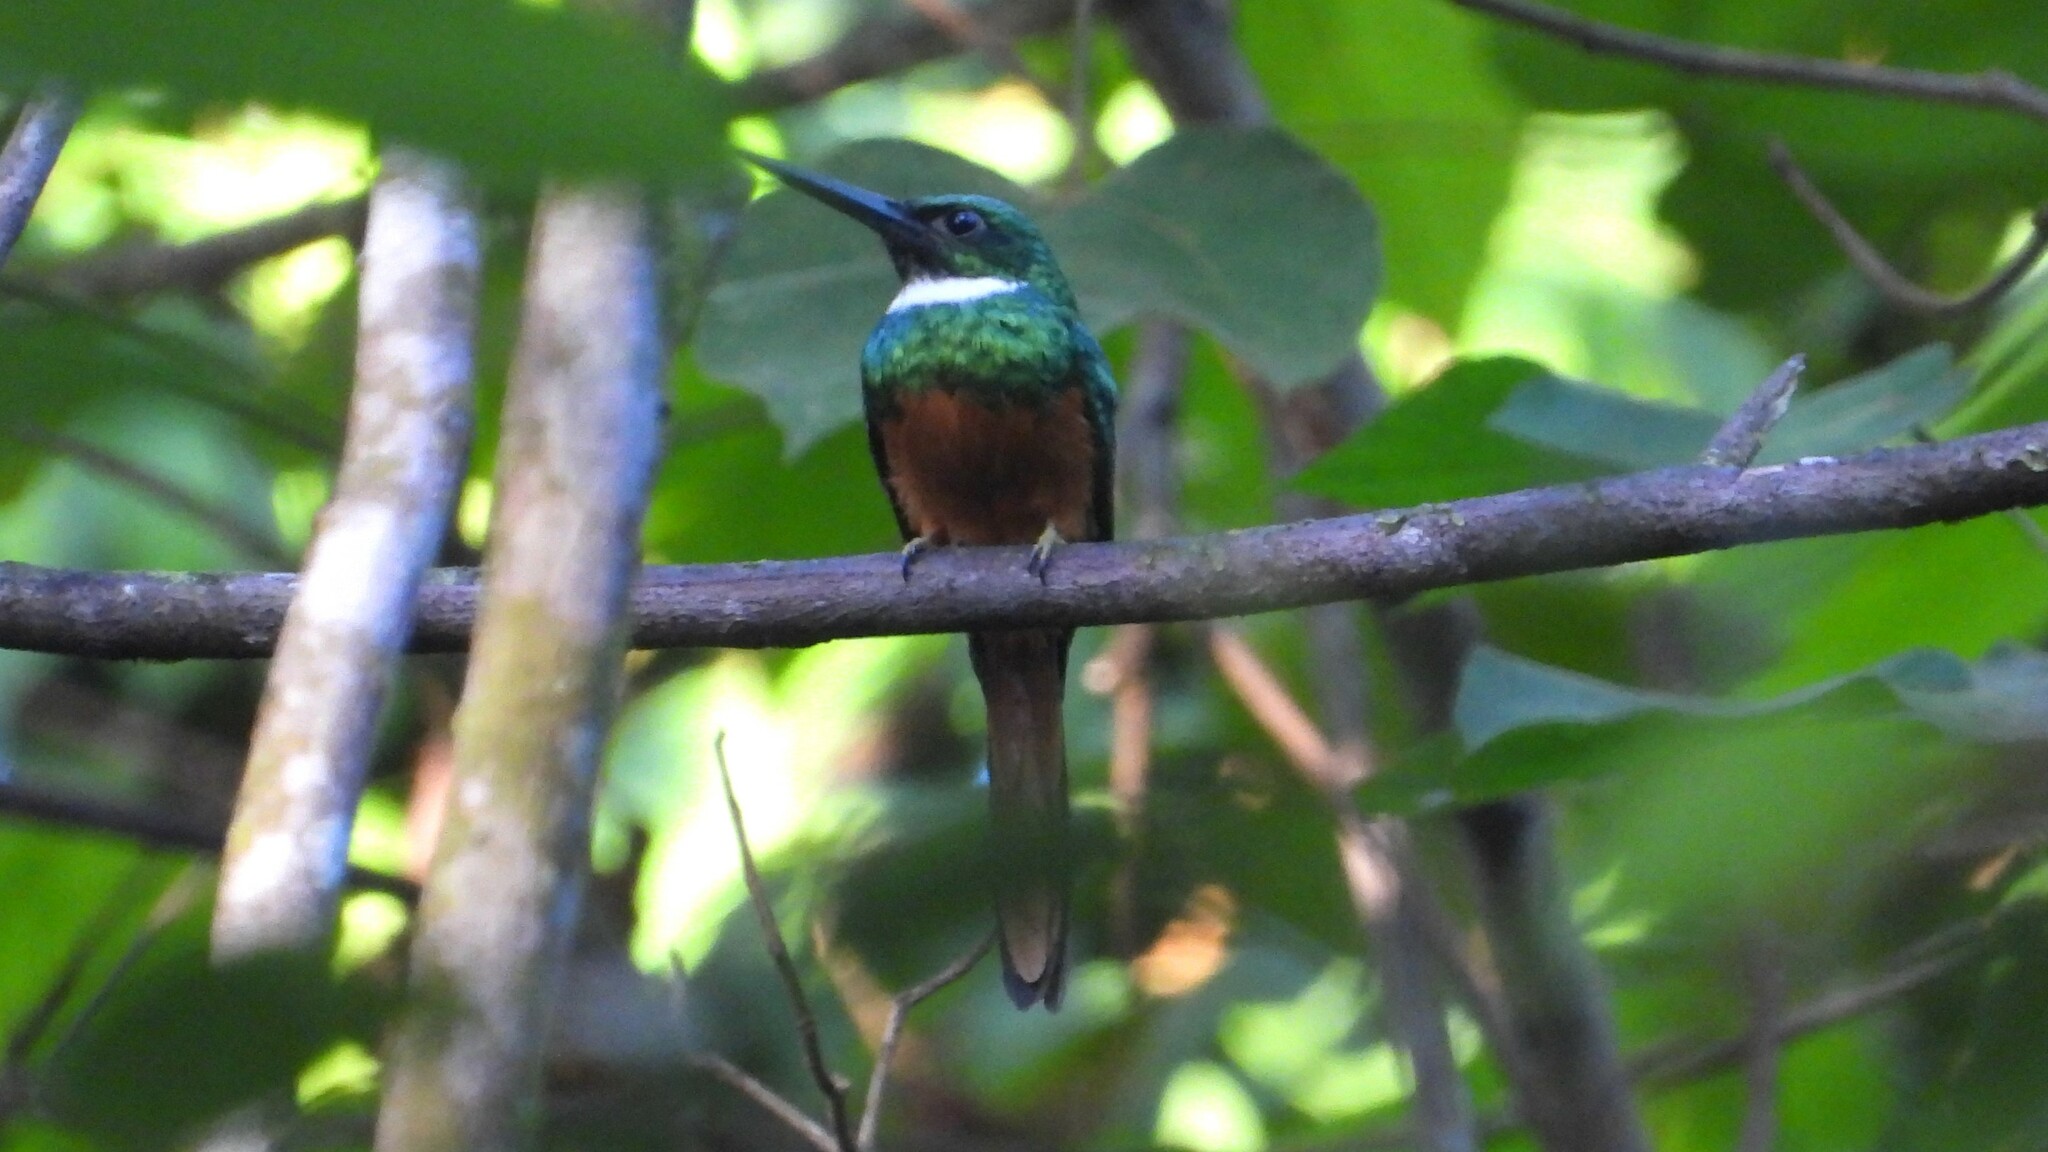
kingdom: Animalia
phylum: Chordata
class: Aves
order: Piciformes
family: Galbulidae
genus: Galbula
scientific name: Galbula ruficauda
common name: Rufous-tailed jacamar
